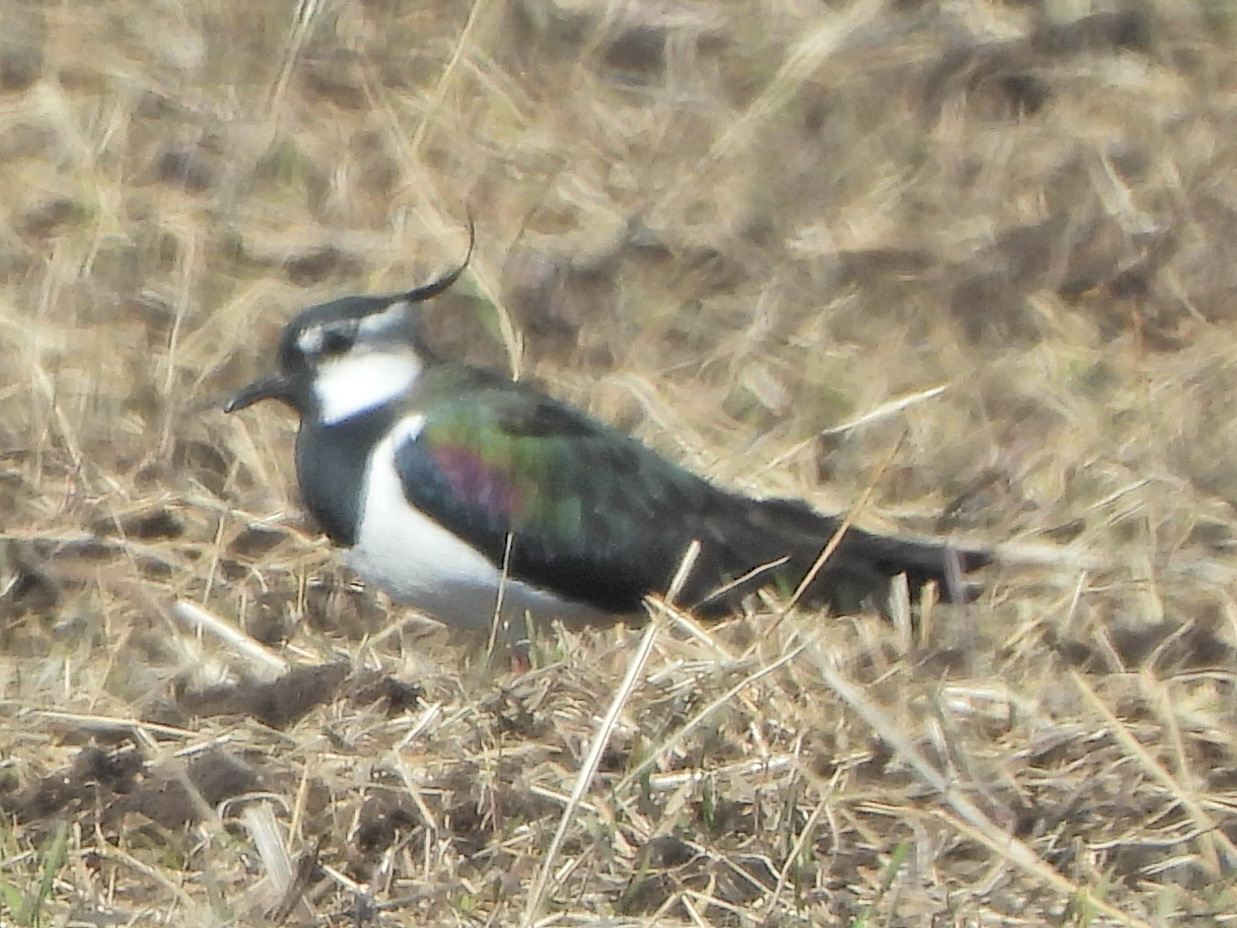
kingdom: Animalia
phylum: Chordata
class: Aves
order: Charadriiformes
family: Charadriidae
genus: Vanellus
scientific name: Vanellus vanellus
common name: Northern lapwing
